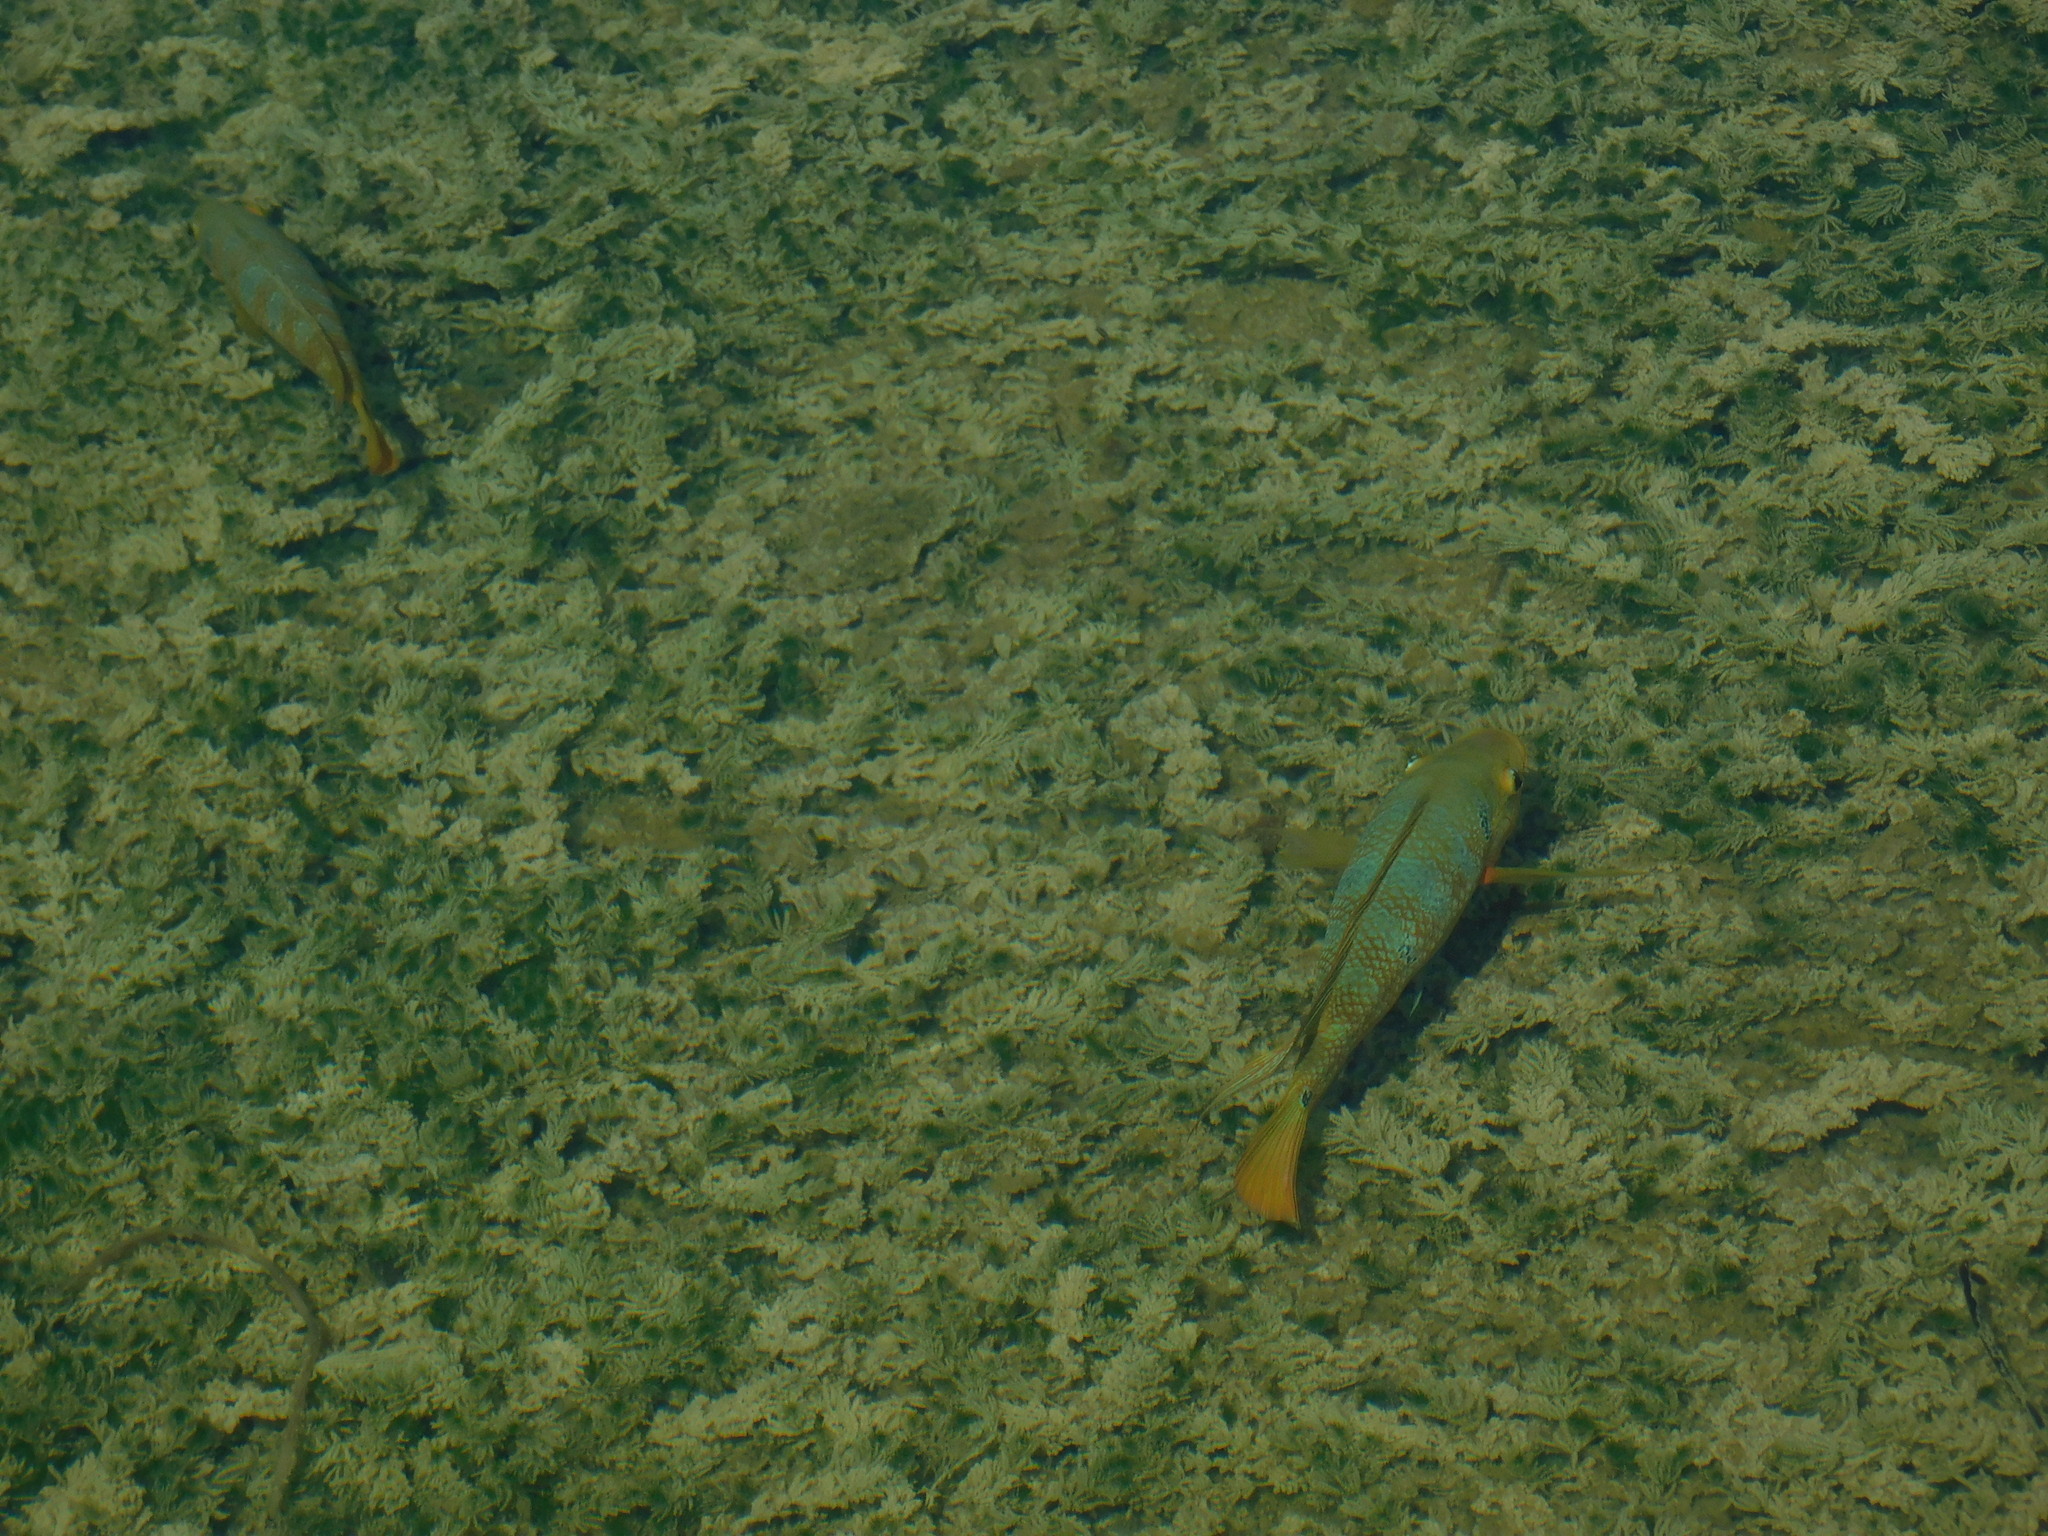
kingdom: Animalia
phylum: Chordata
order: Perciformes
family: Cichlidae
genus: Mayaheros
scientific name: Mayaheros urophthalmus
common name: Mayan cichlid
